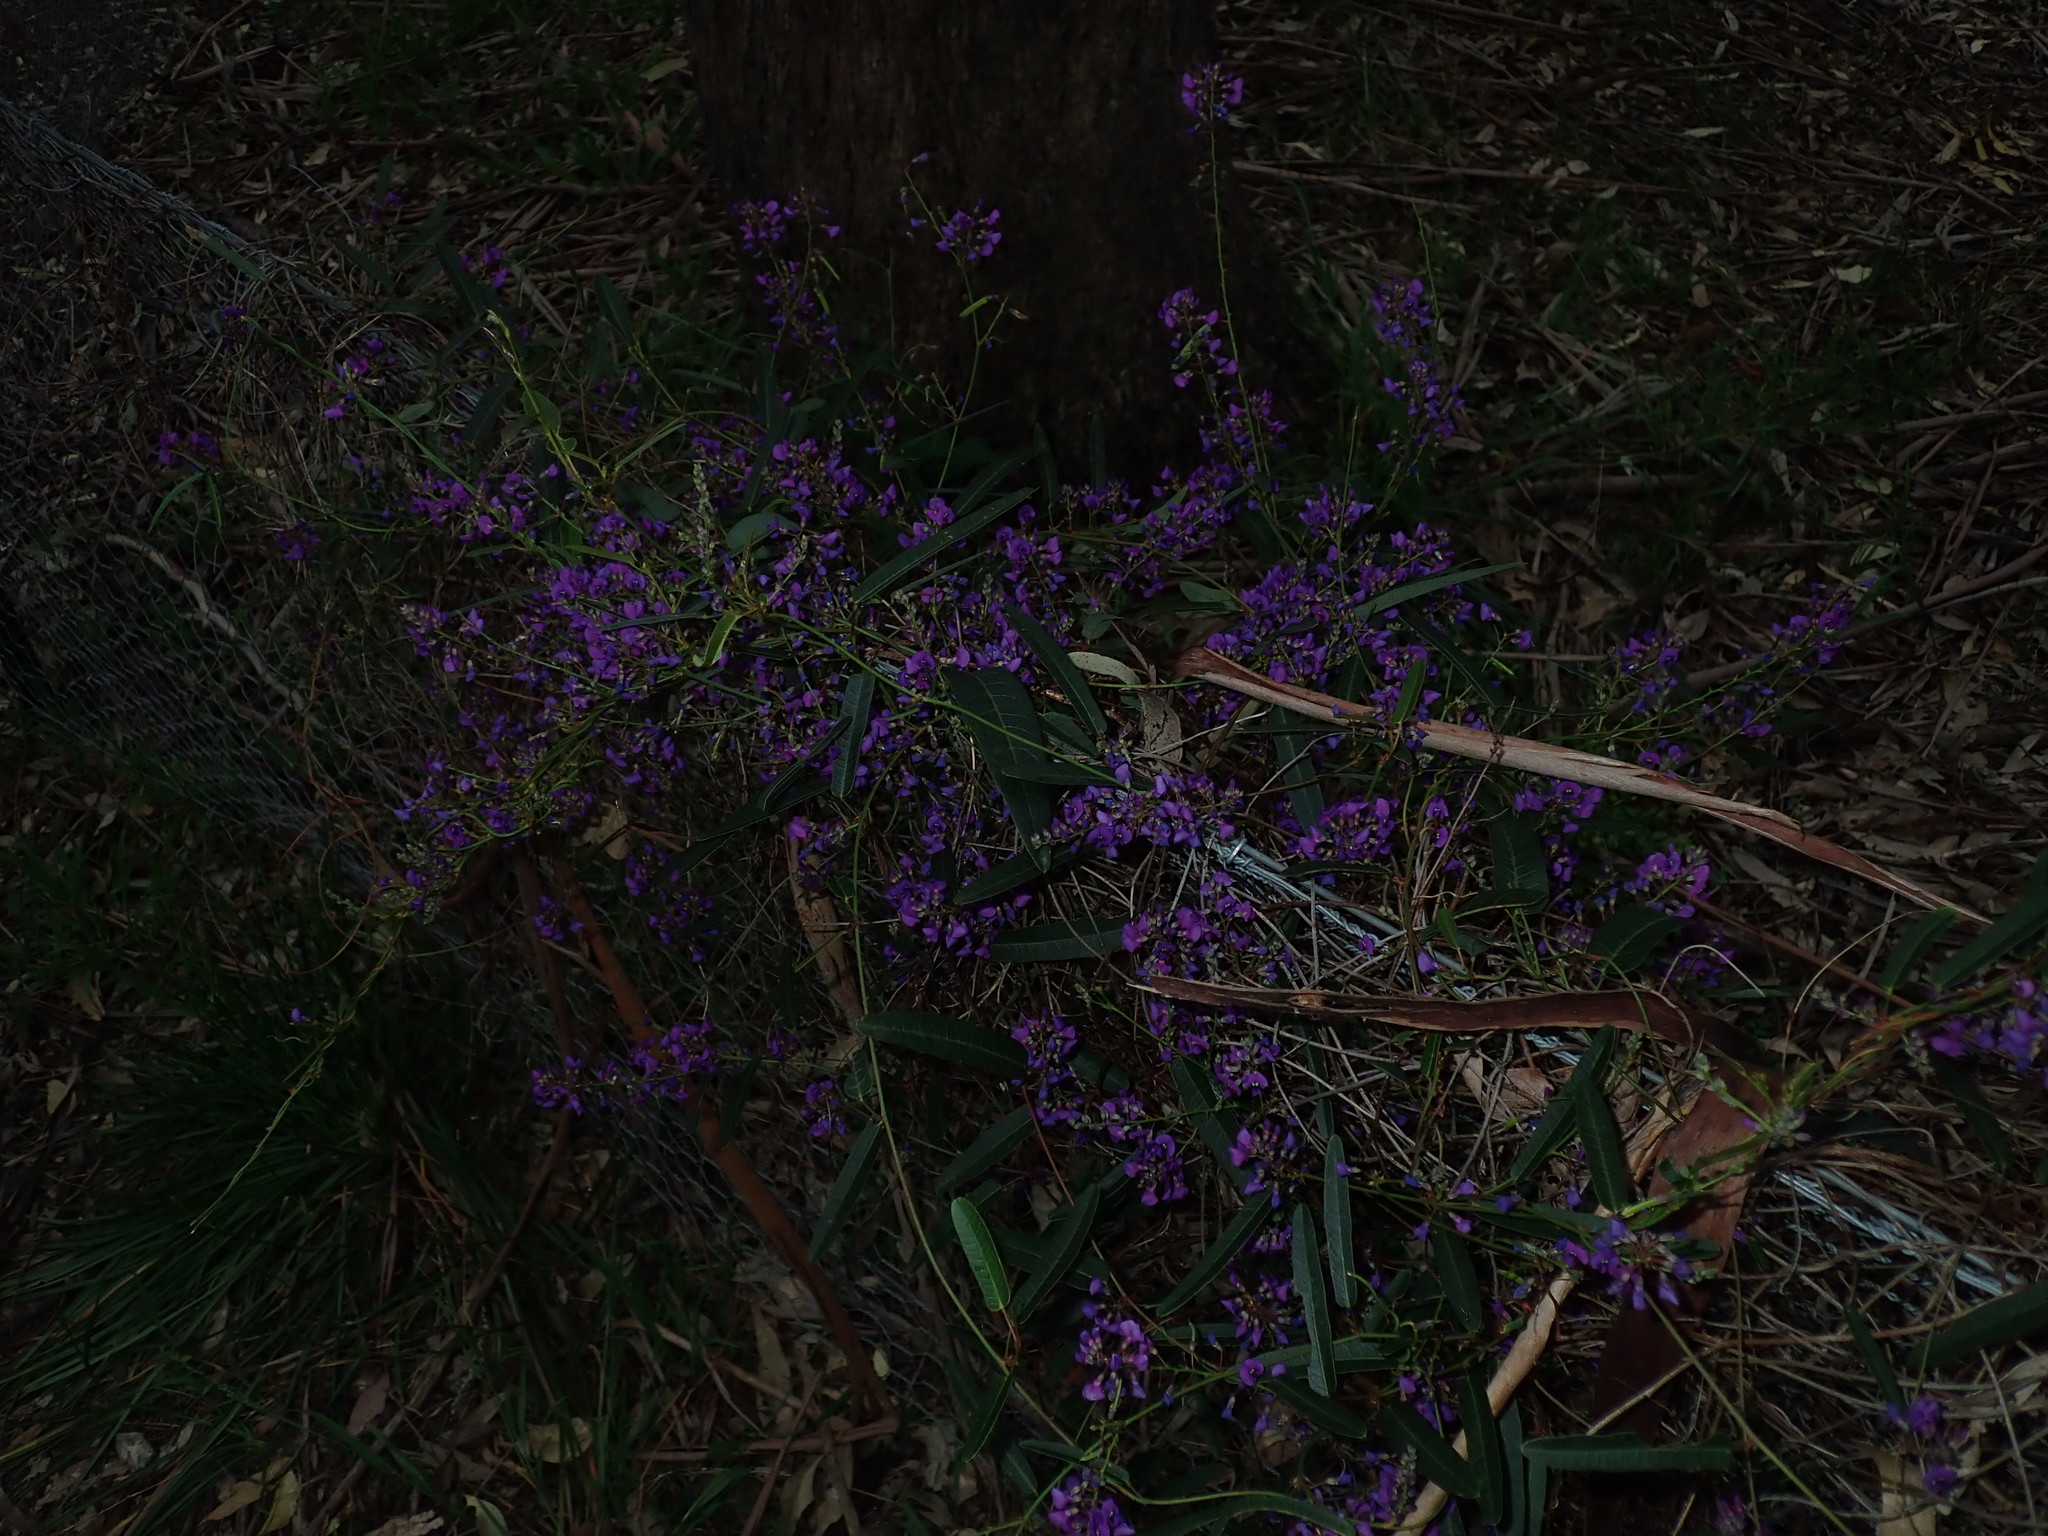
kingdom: Plantae
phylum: Tracheophyta
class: Magnoliopsida
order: Fabales
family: Fabaceae
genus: Hardenbergia
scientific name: Hardenbergia violacea
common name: Coral-pea
